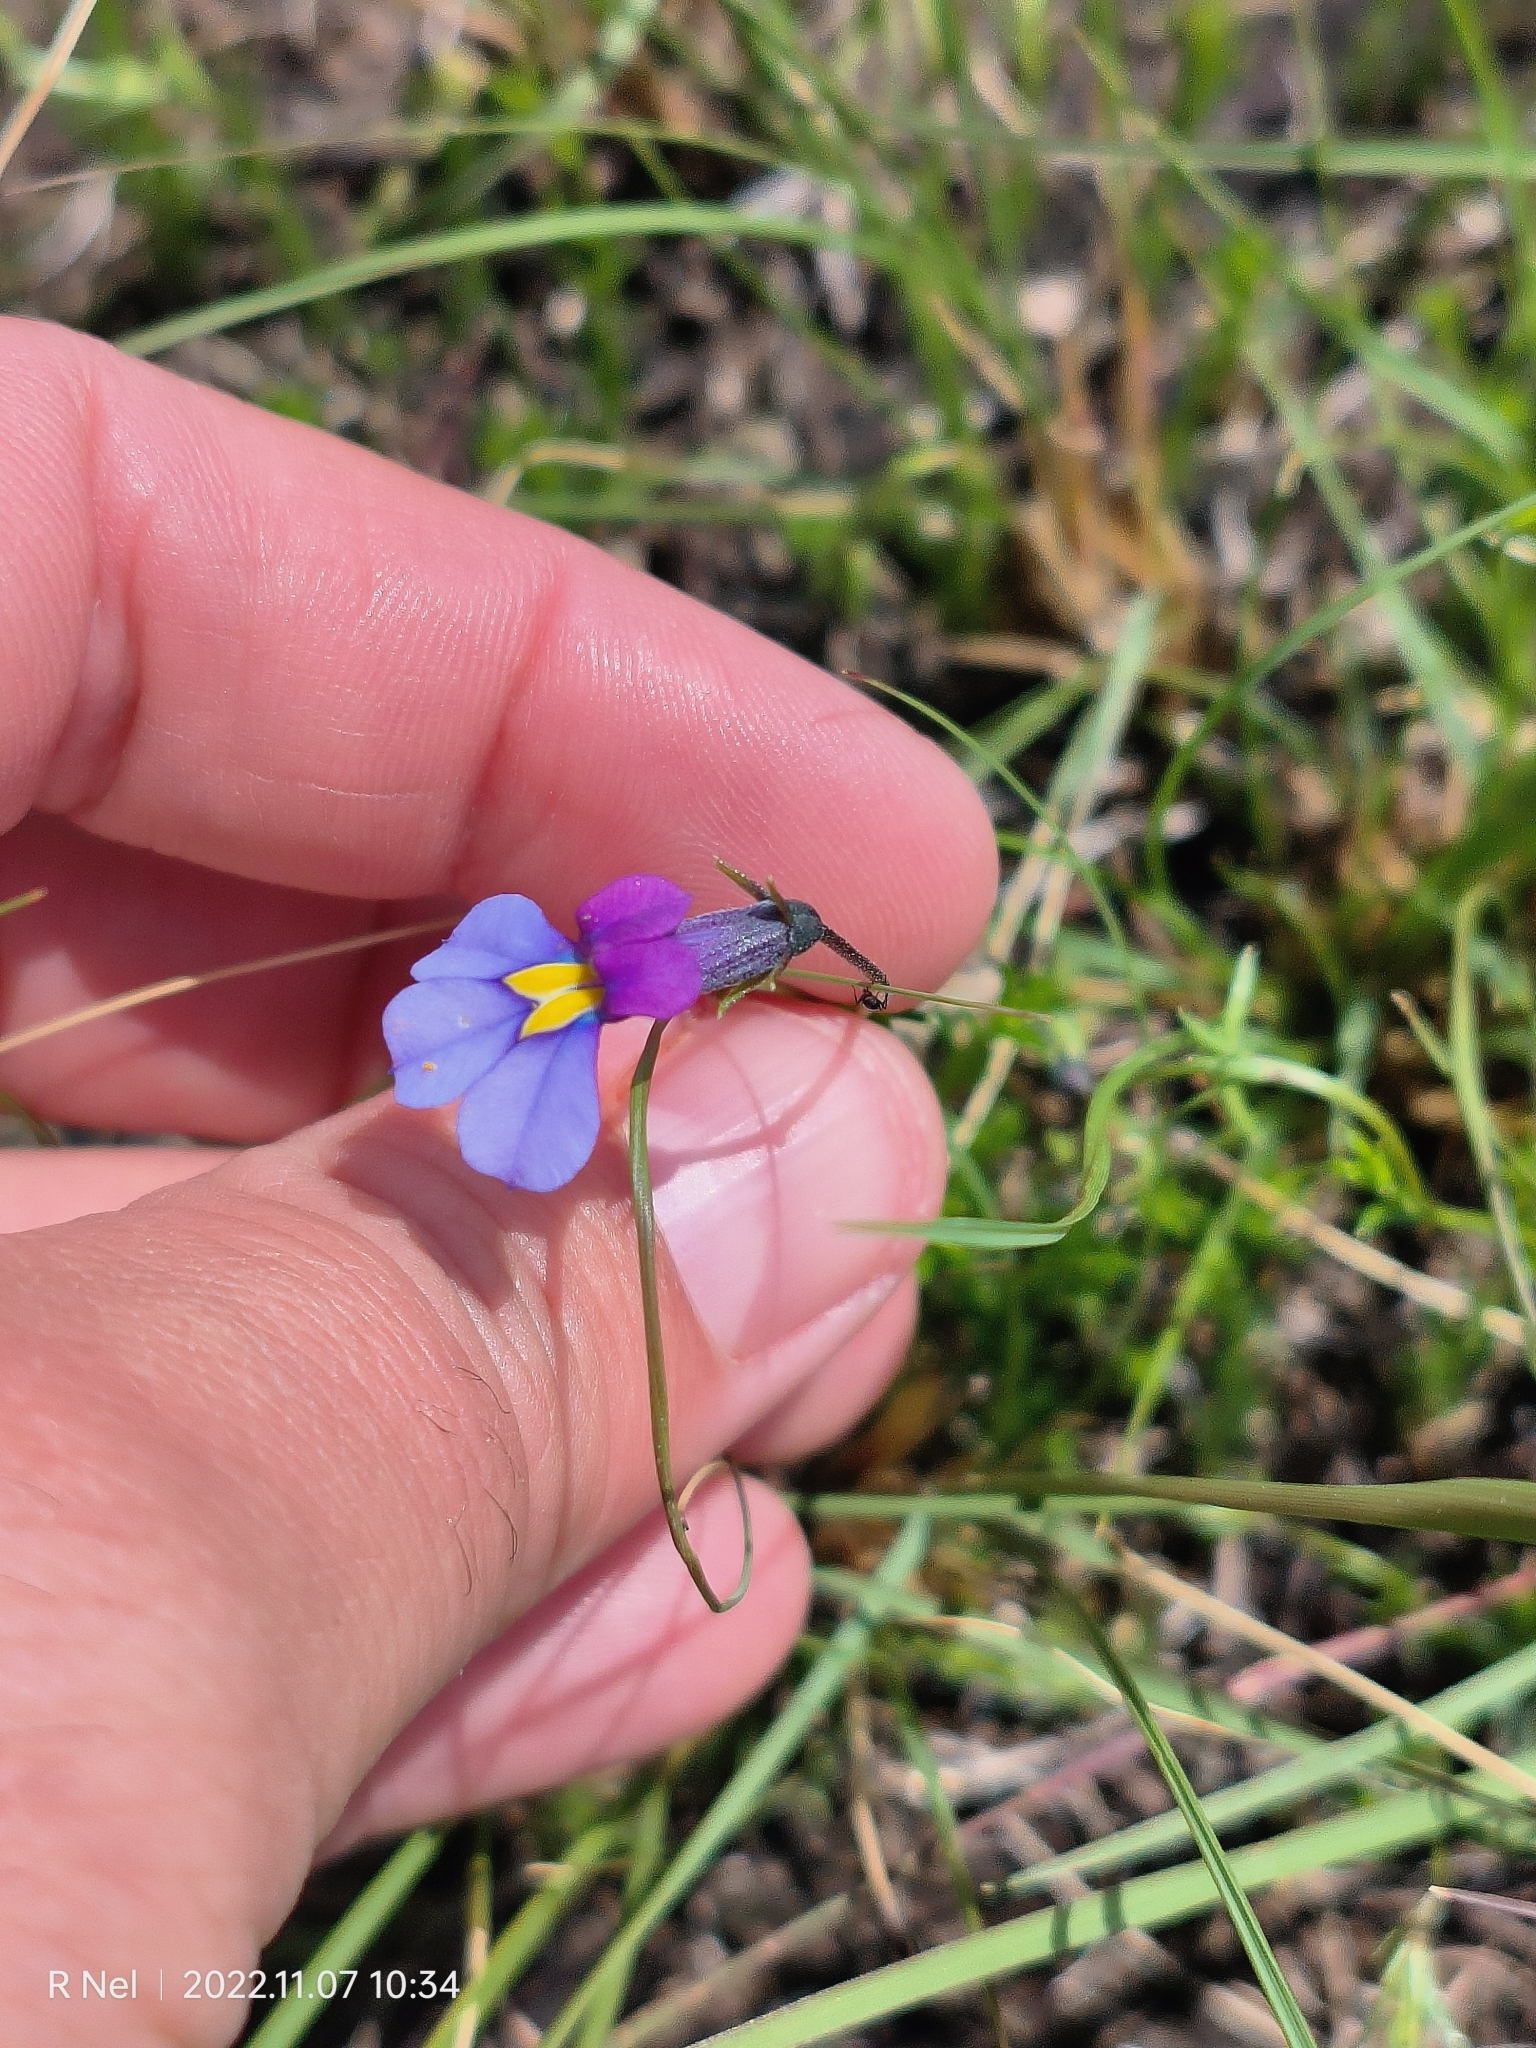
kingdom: Plantae
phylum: Tracheophyta
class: Magnoliopsida
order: Asterales
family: Campanulaceae
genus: Monopsis
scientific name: Monopsis decipiens
